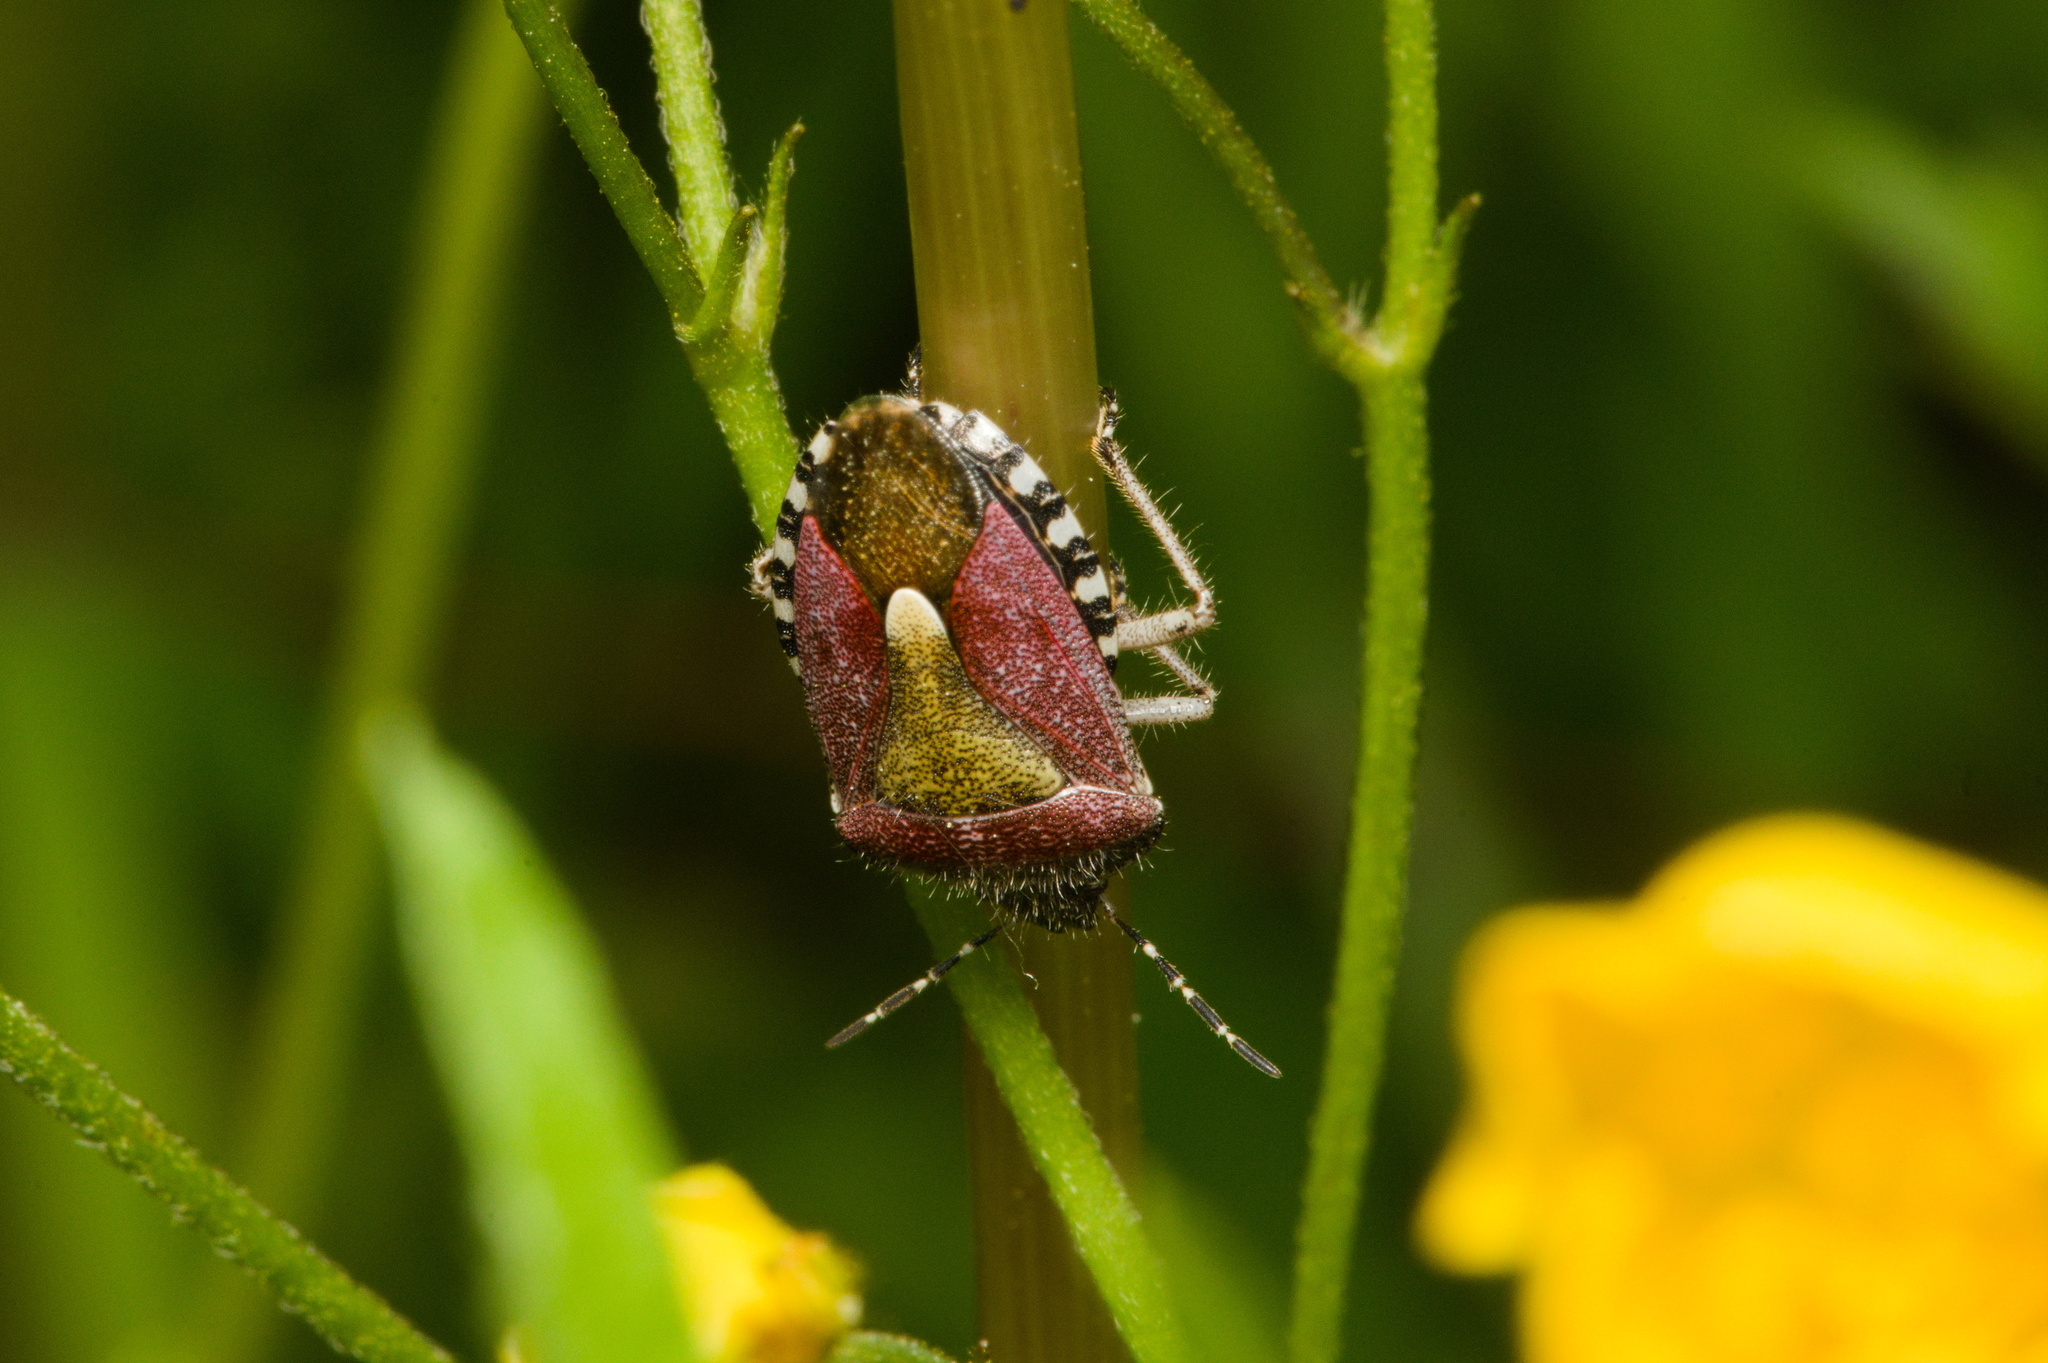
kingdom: Animalia
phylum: Arthropoda
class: Insecta
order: Hemiptera
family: Pentatomidae
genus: Dolycoris
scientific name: Dolycoris baccarum
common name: Sloe bug
